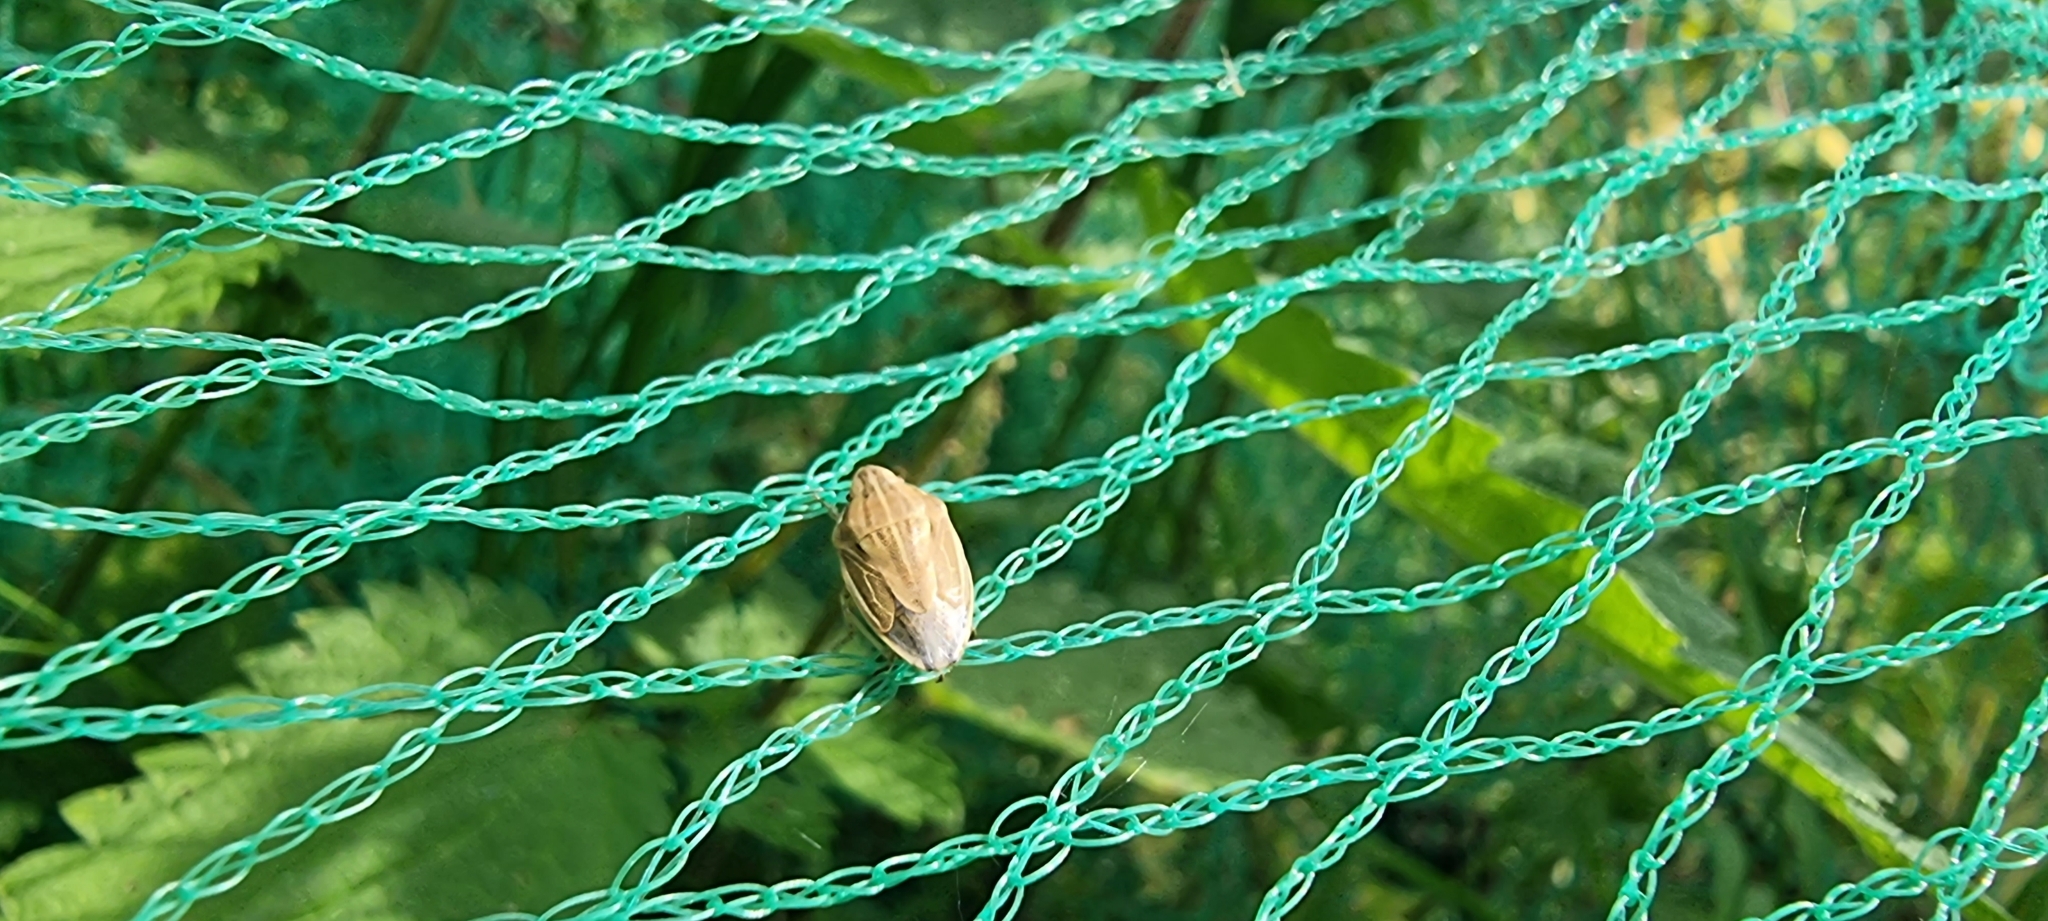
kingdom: Animalia
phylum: Arthropoda
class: Insecta
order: Hemiptera
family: Pentatomidae
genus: Aelia
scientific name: Aelia acuminata
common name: Bishop's mitre
